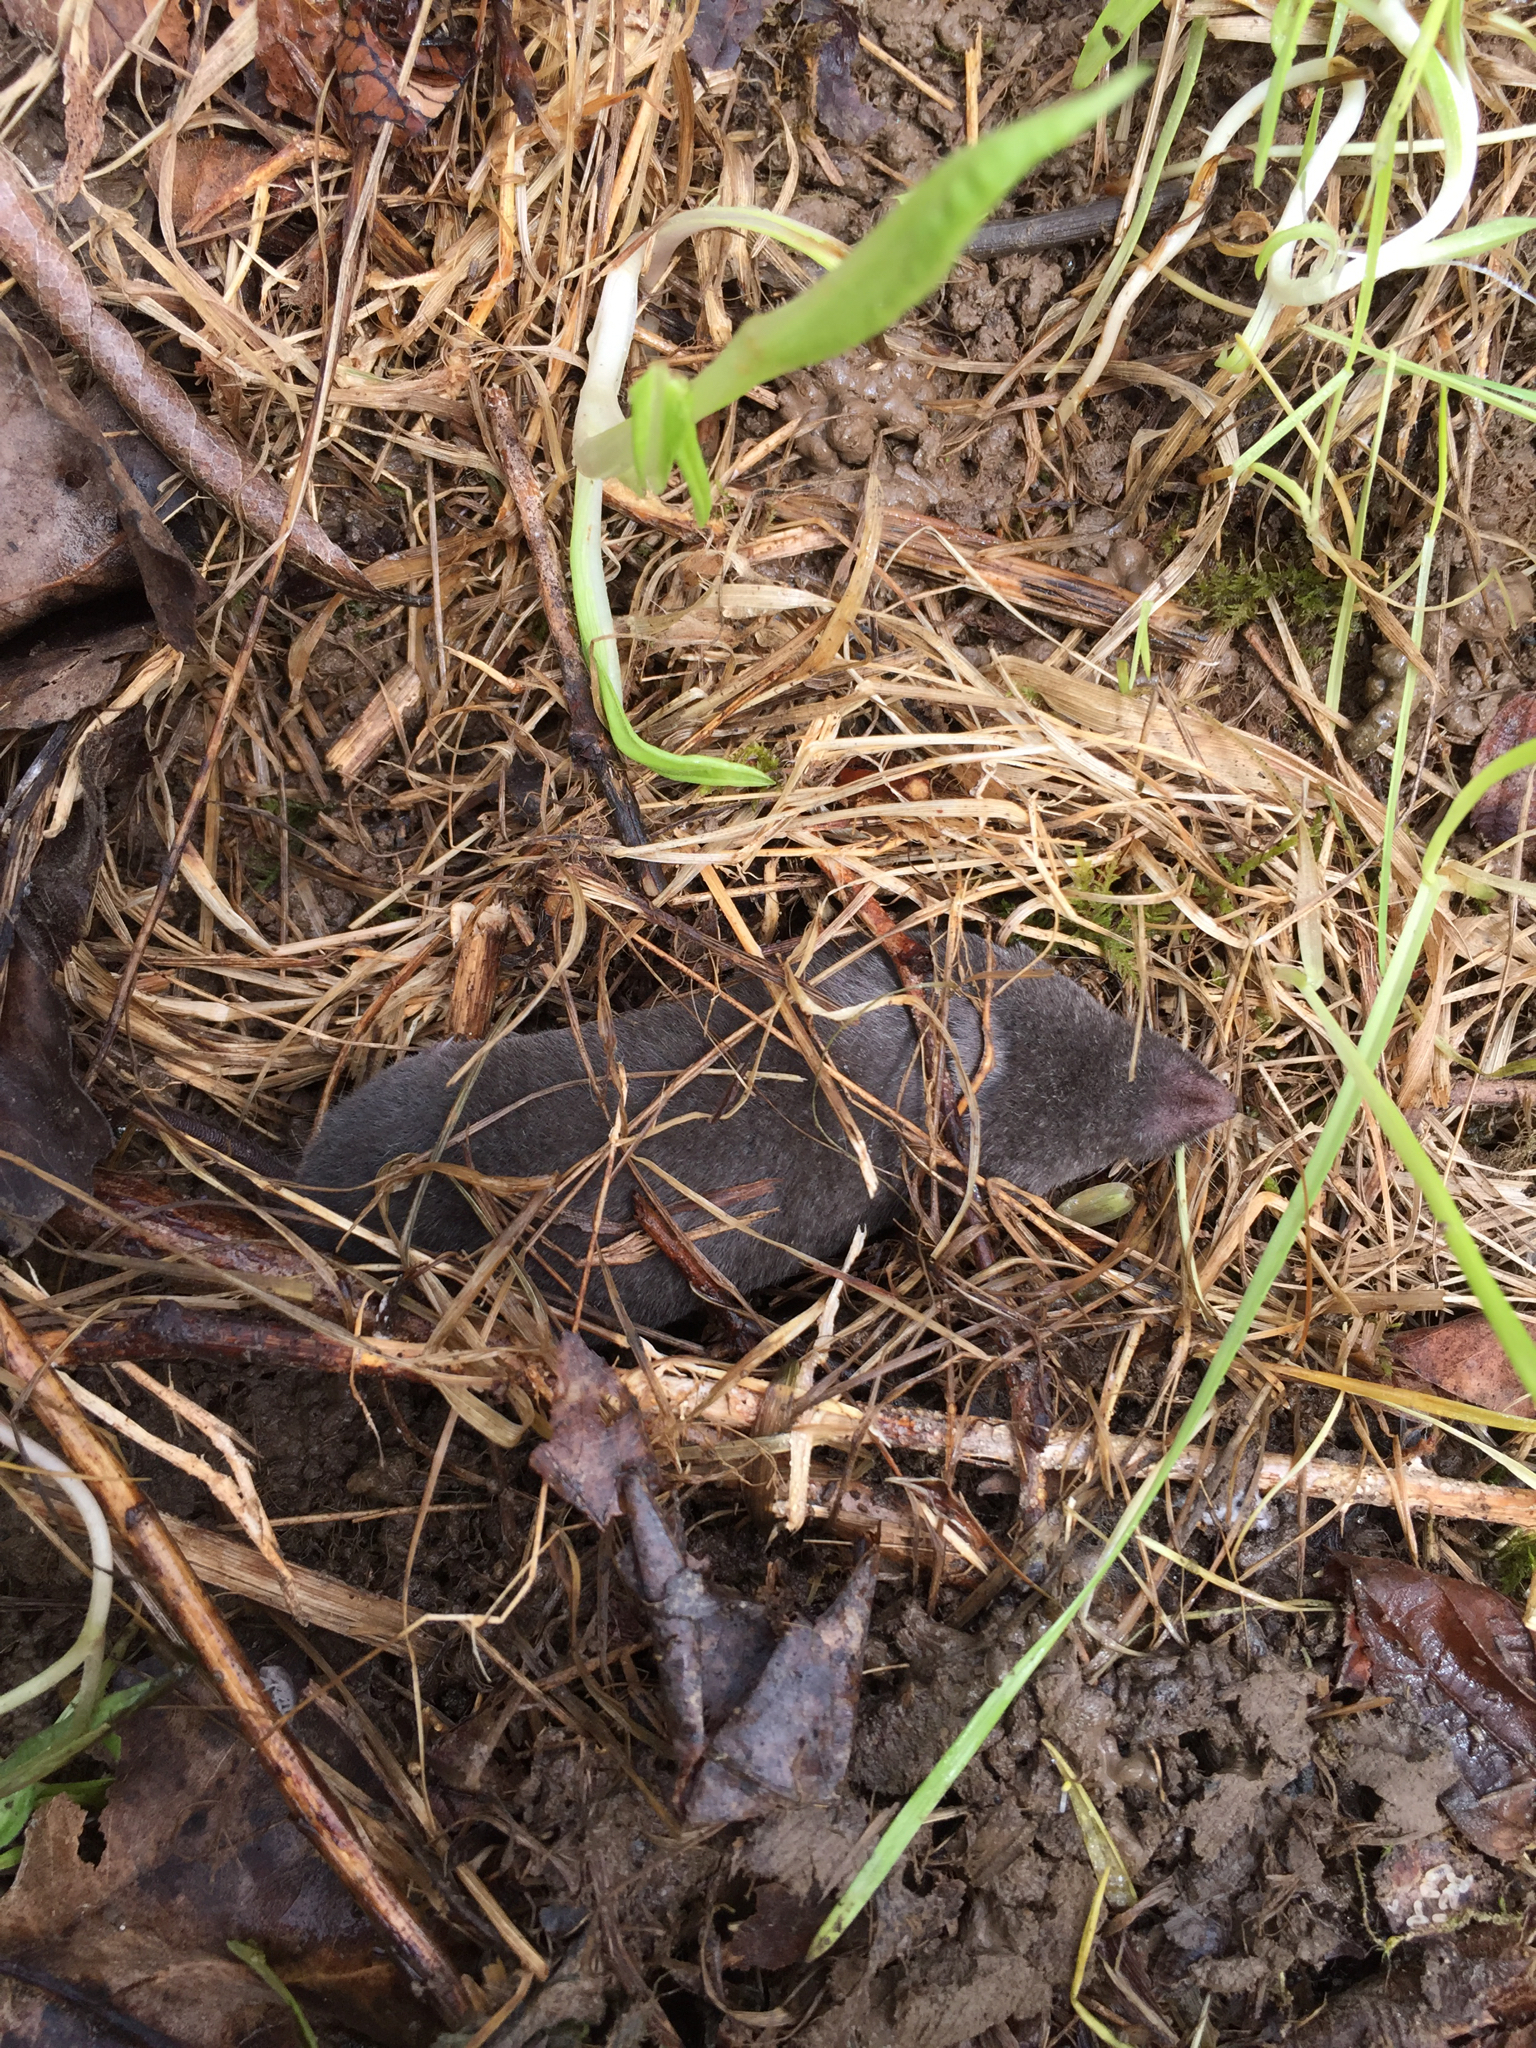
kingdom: Animalia
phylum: Chordata
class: Mammalia
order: Soricomorpha
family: Soricidae
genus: Blarina
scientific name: Blarina brevicauda
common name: Northern short-tailed shrew
